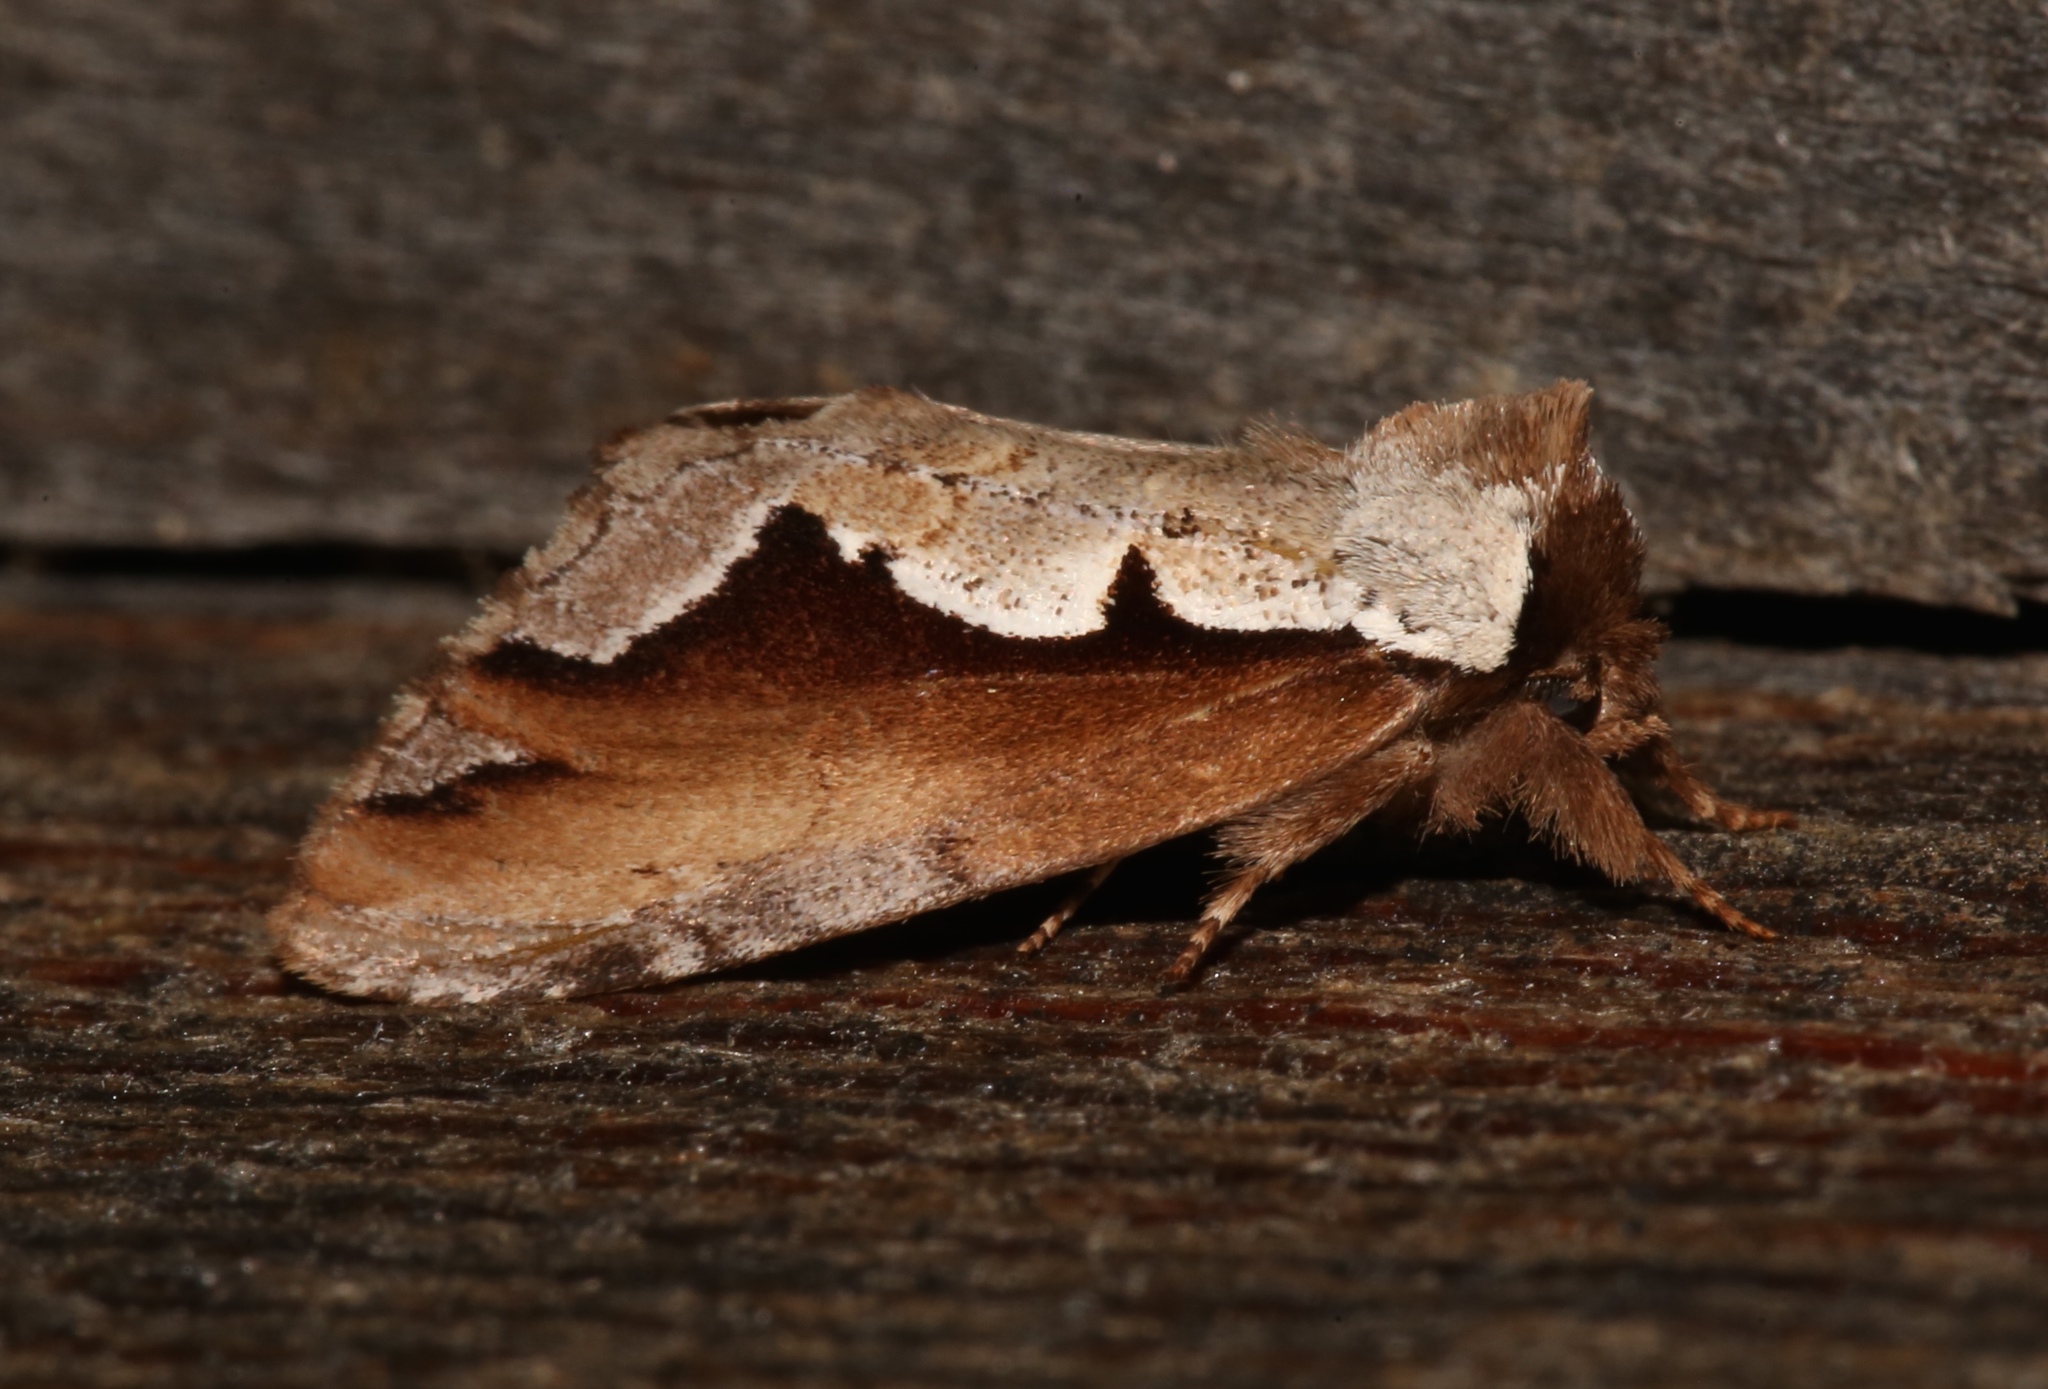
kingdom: Animalia
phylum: Arthropoda
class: Insecta
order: Lepidoptera
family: Notodontidae
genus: Nerice
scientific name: Nerice bidentata
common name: Double-toothed prominent
